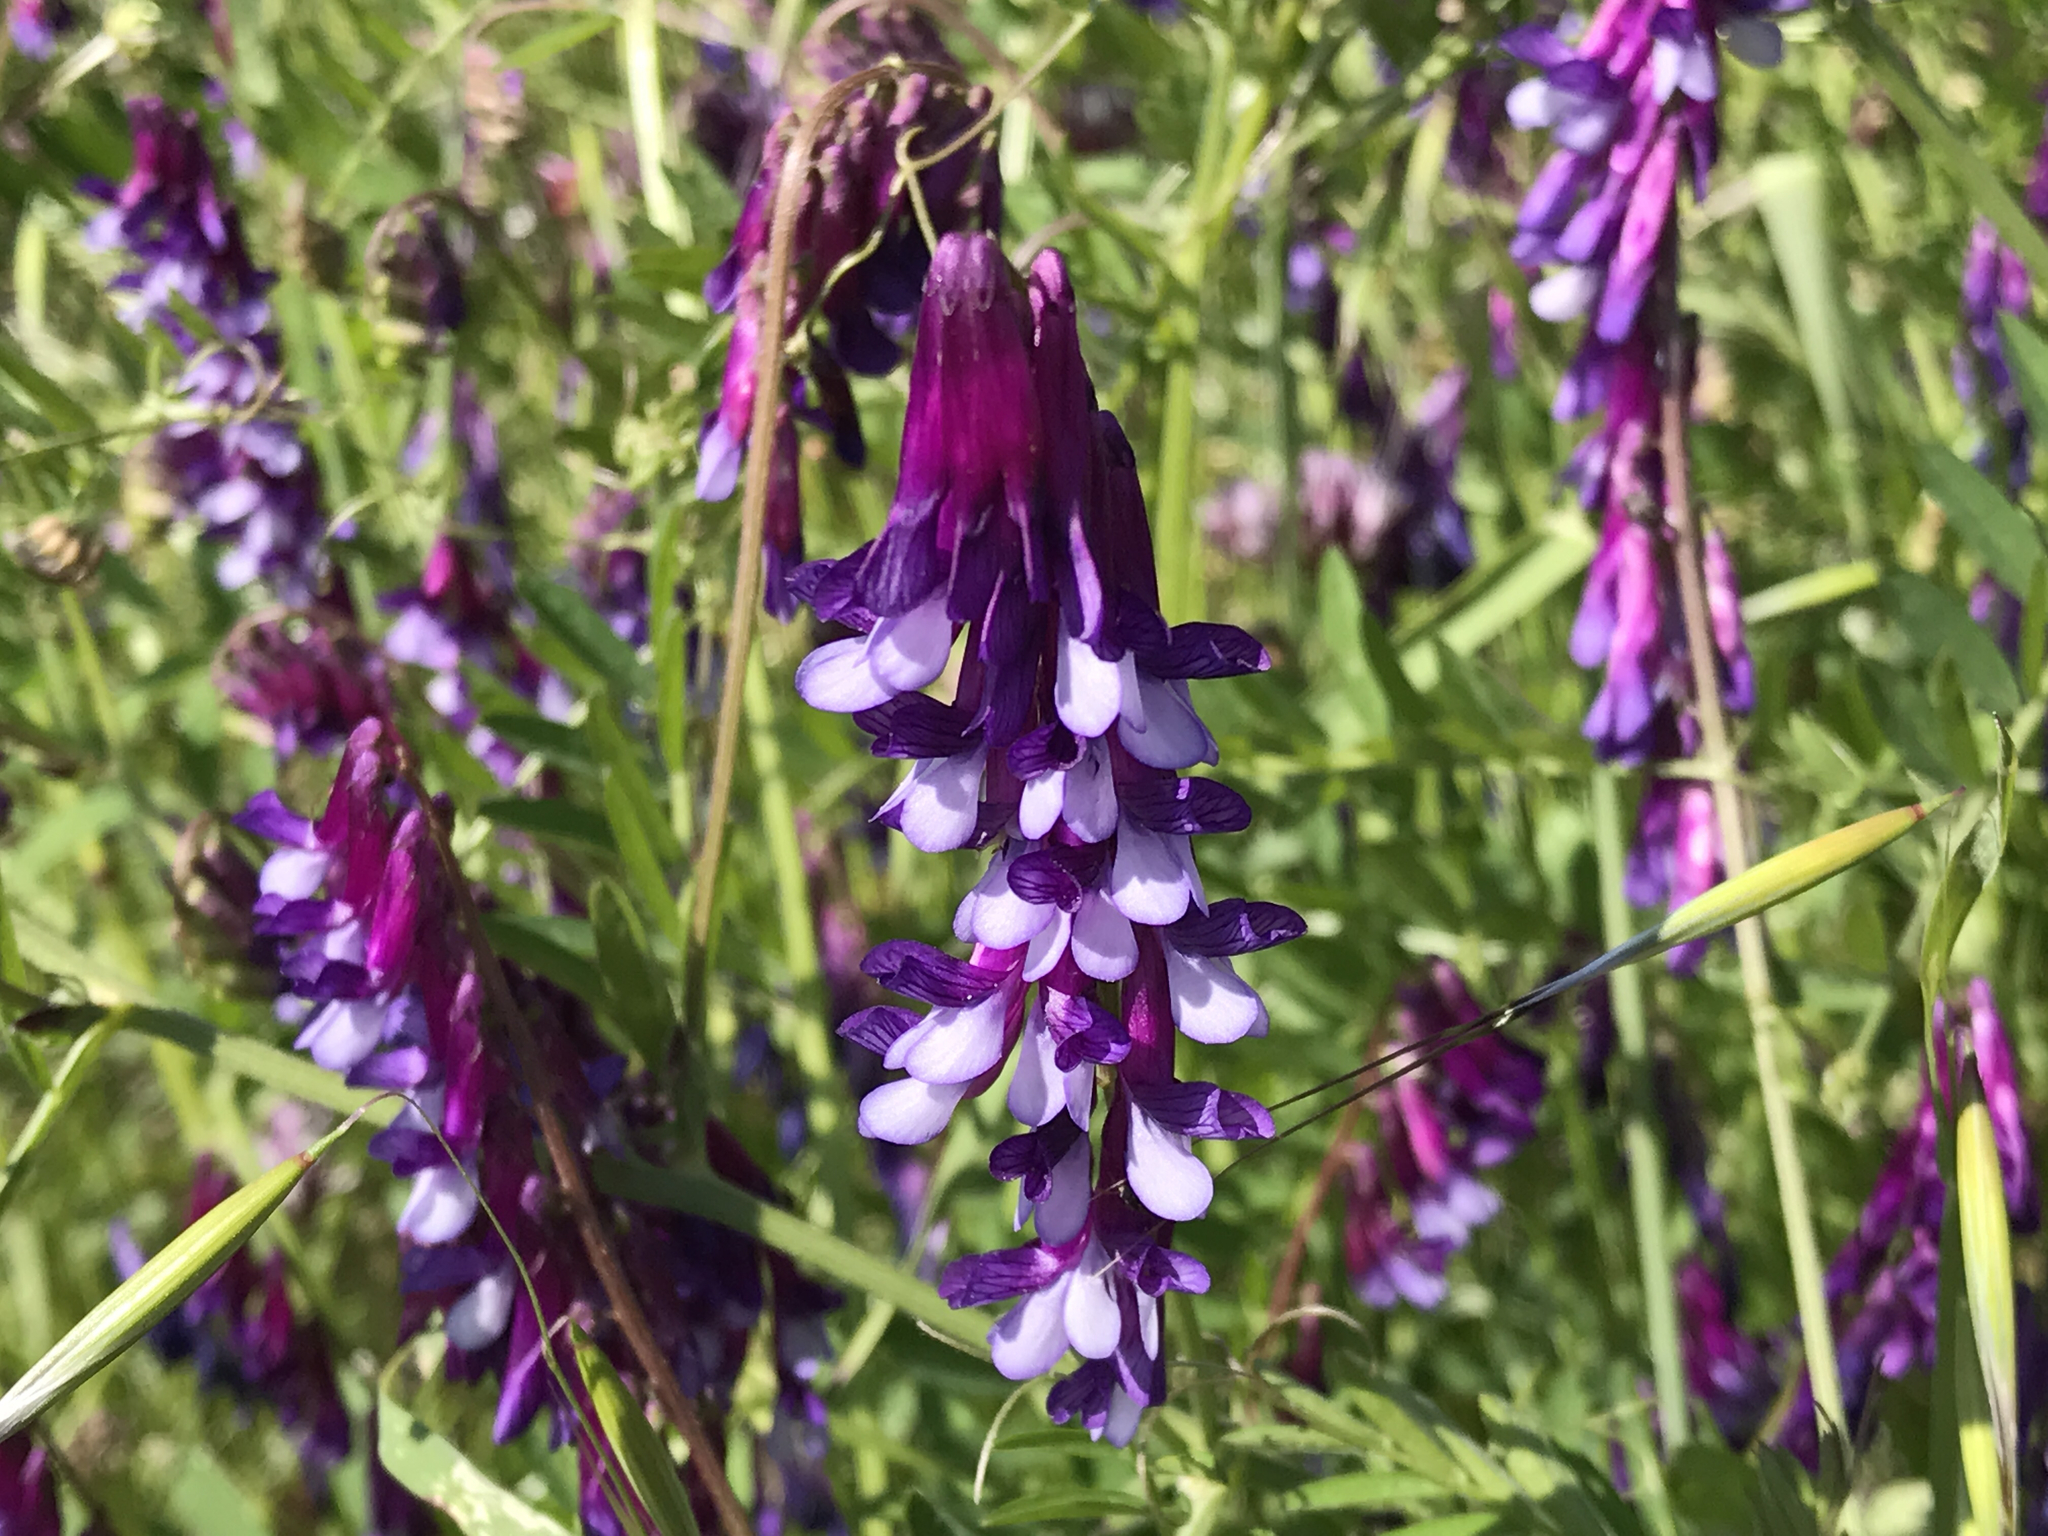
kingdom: Plantae
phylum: Tracheophyta
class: Magnoliopsida
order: Fabales
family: Fabaceae
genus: Vicia
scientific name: Vicia villosa
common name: Fodder vetch
